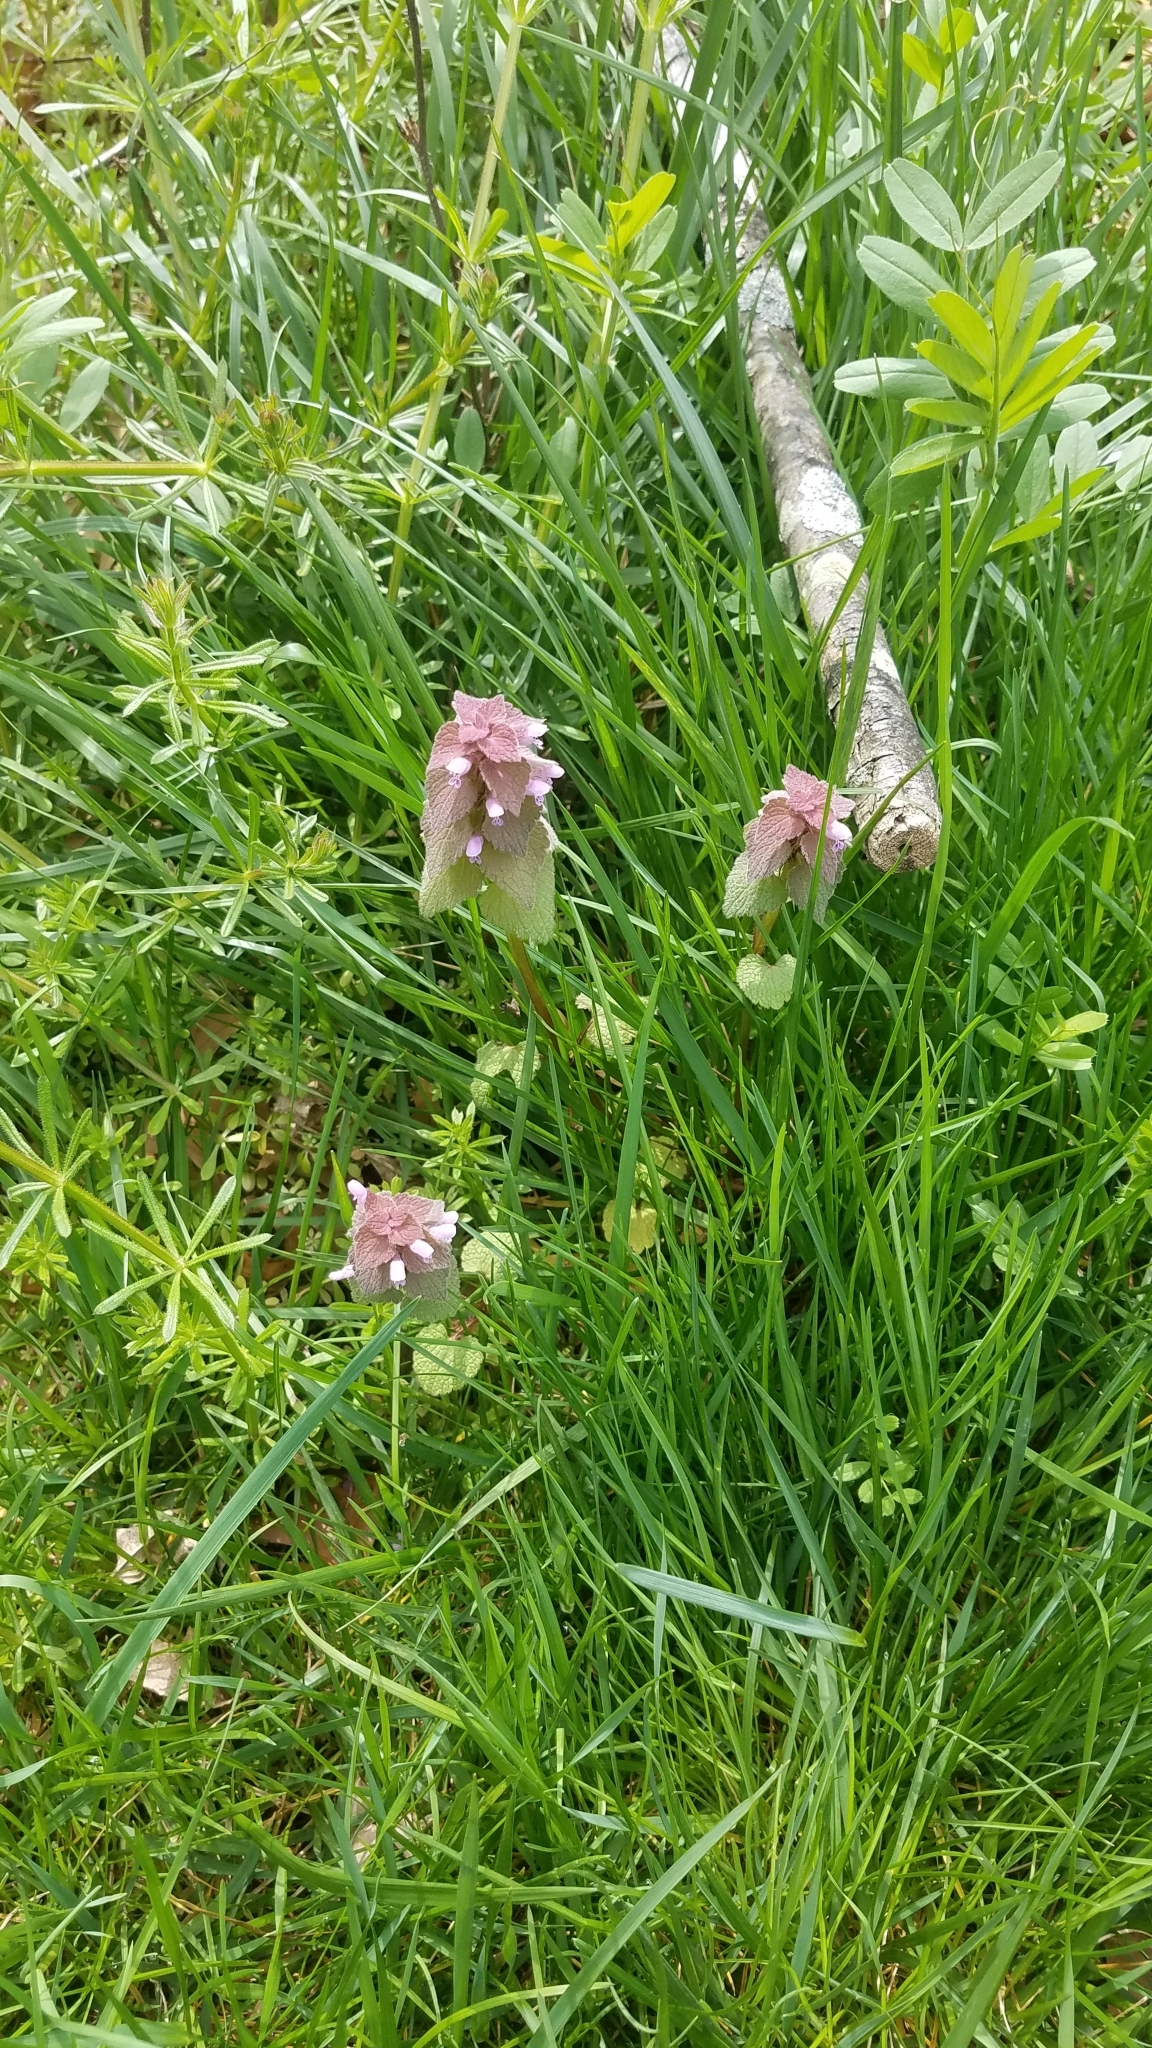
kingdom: Plantae
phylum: Tracheophyta
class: Magnoliopsida
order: Lamiales
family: Lamiaceae
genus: Lamium
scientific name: Lamium purpureum
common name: Red dead-nettle
